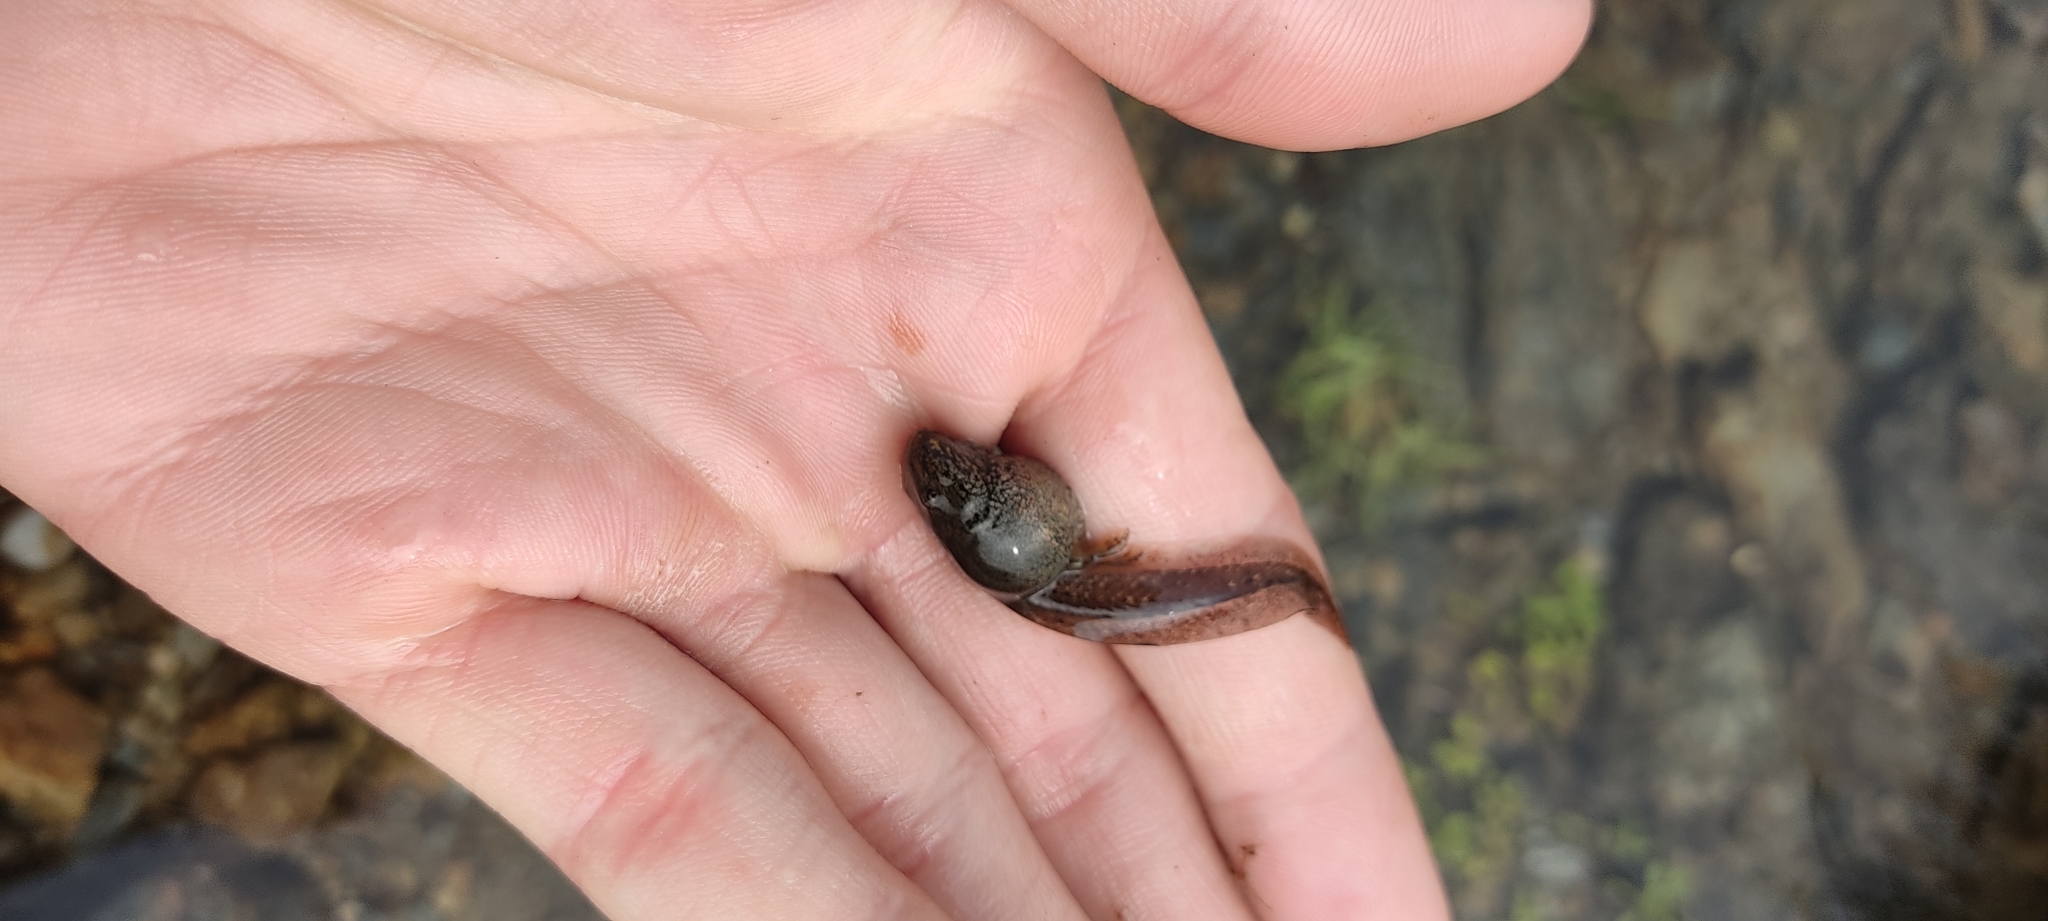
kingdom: Animalia
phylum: Chordata
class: Amphibia
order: Anura
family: Ranidae
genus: Rana
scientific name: Rana temporaria
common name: Common frog
